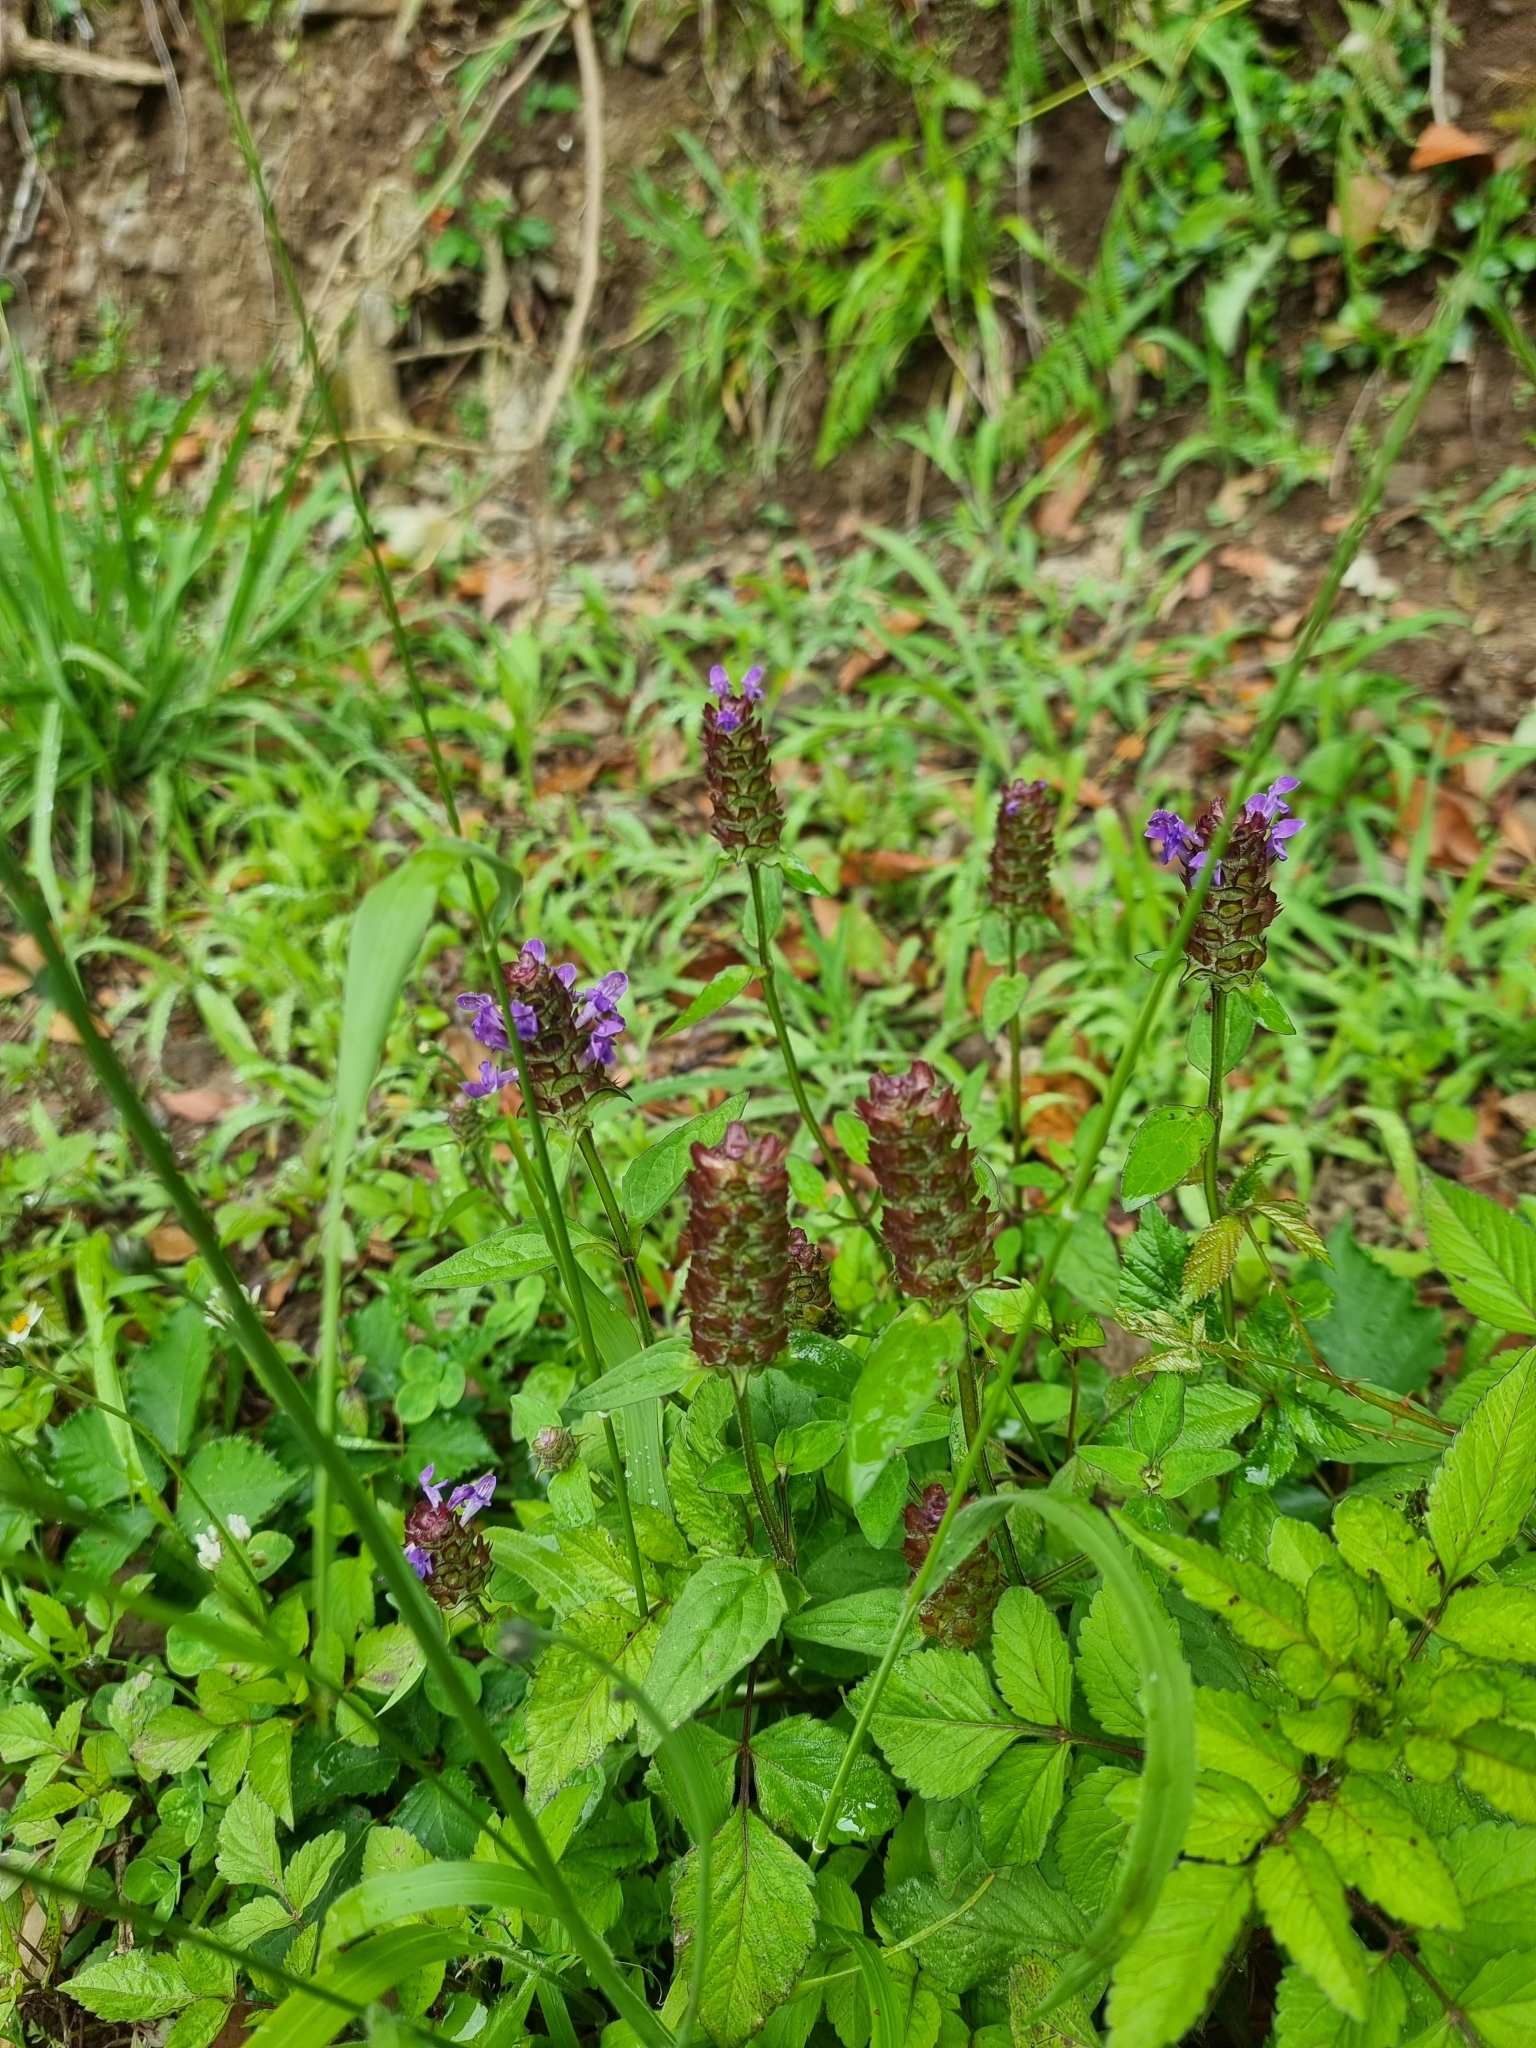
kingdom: Plantae
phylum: Tracheophyta
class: Magnoliopsida
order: Lamiales
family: Lamiaceae
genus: Prunella
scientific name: Prunella vulgaris
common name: Heal-all
